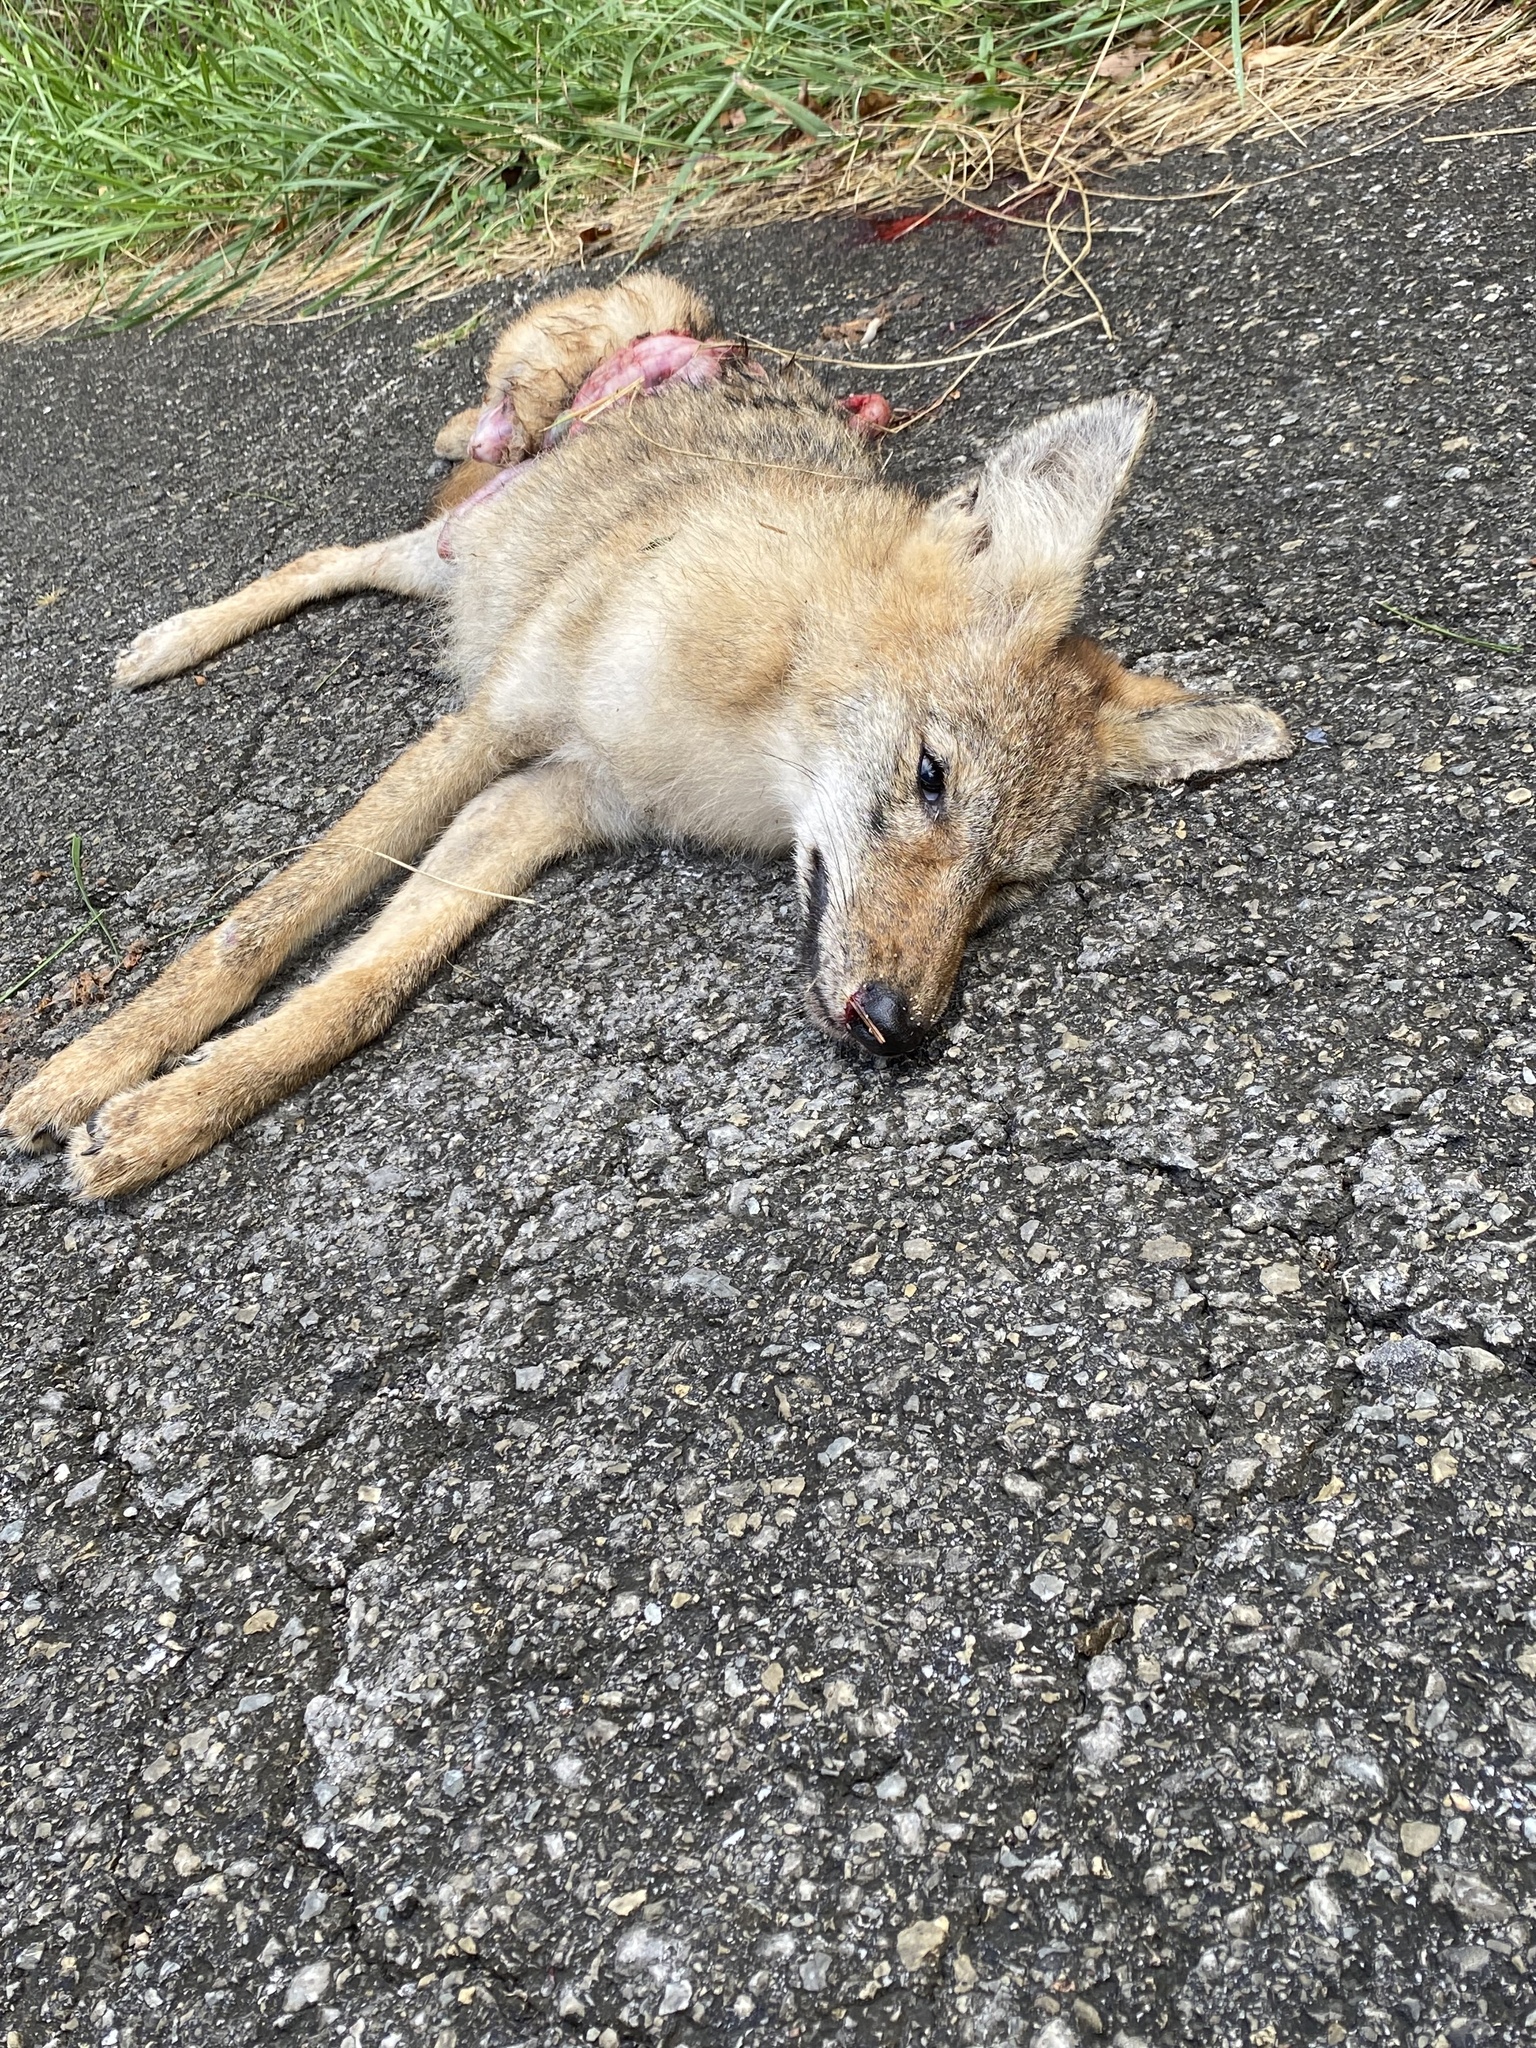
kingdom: Animalia
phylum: Chordata
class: Mammalia
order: Carnivora
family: Canidae
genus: Canis
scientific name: Canis latrans
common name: Coyote
